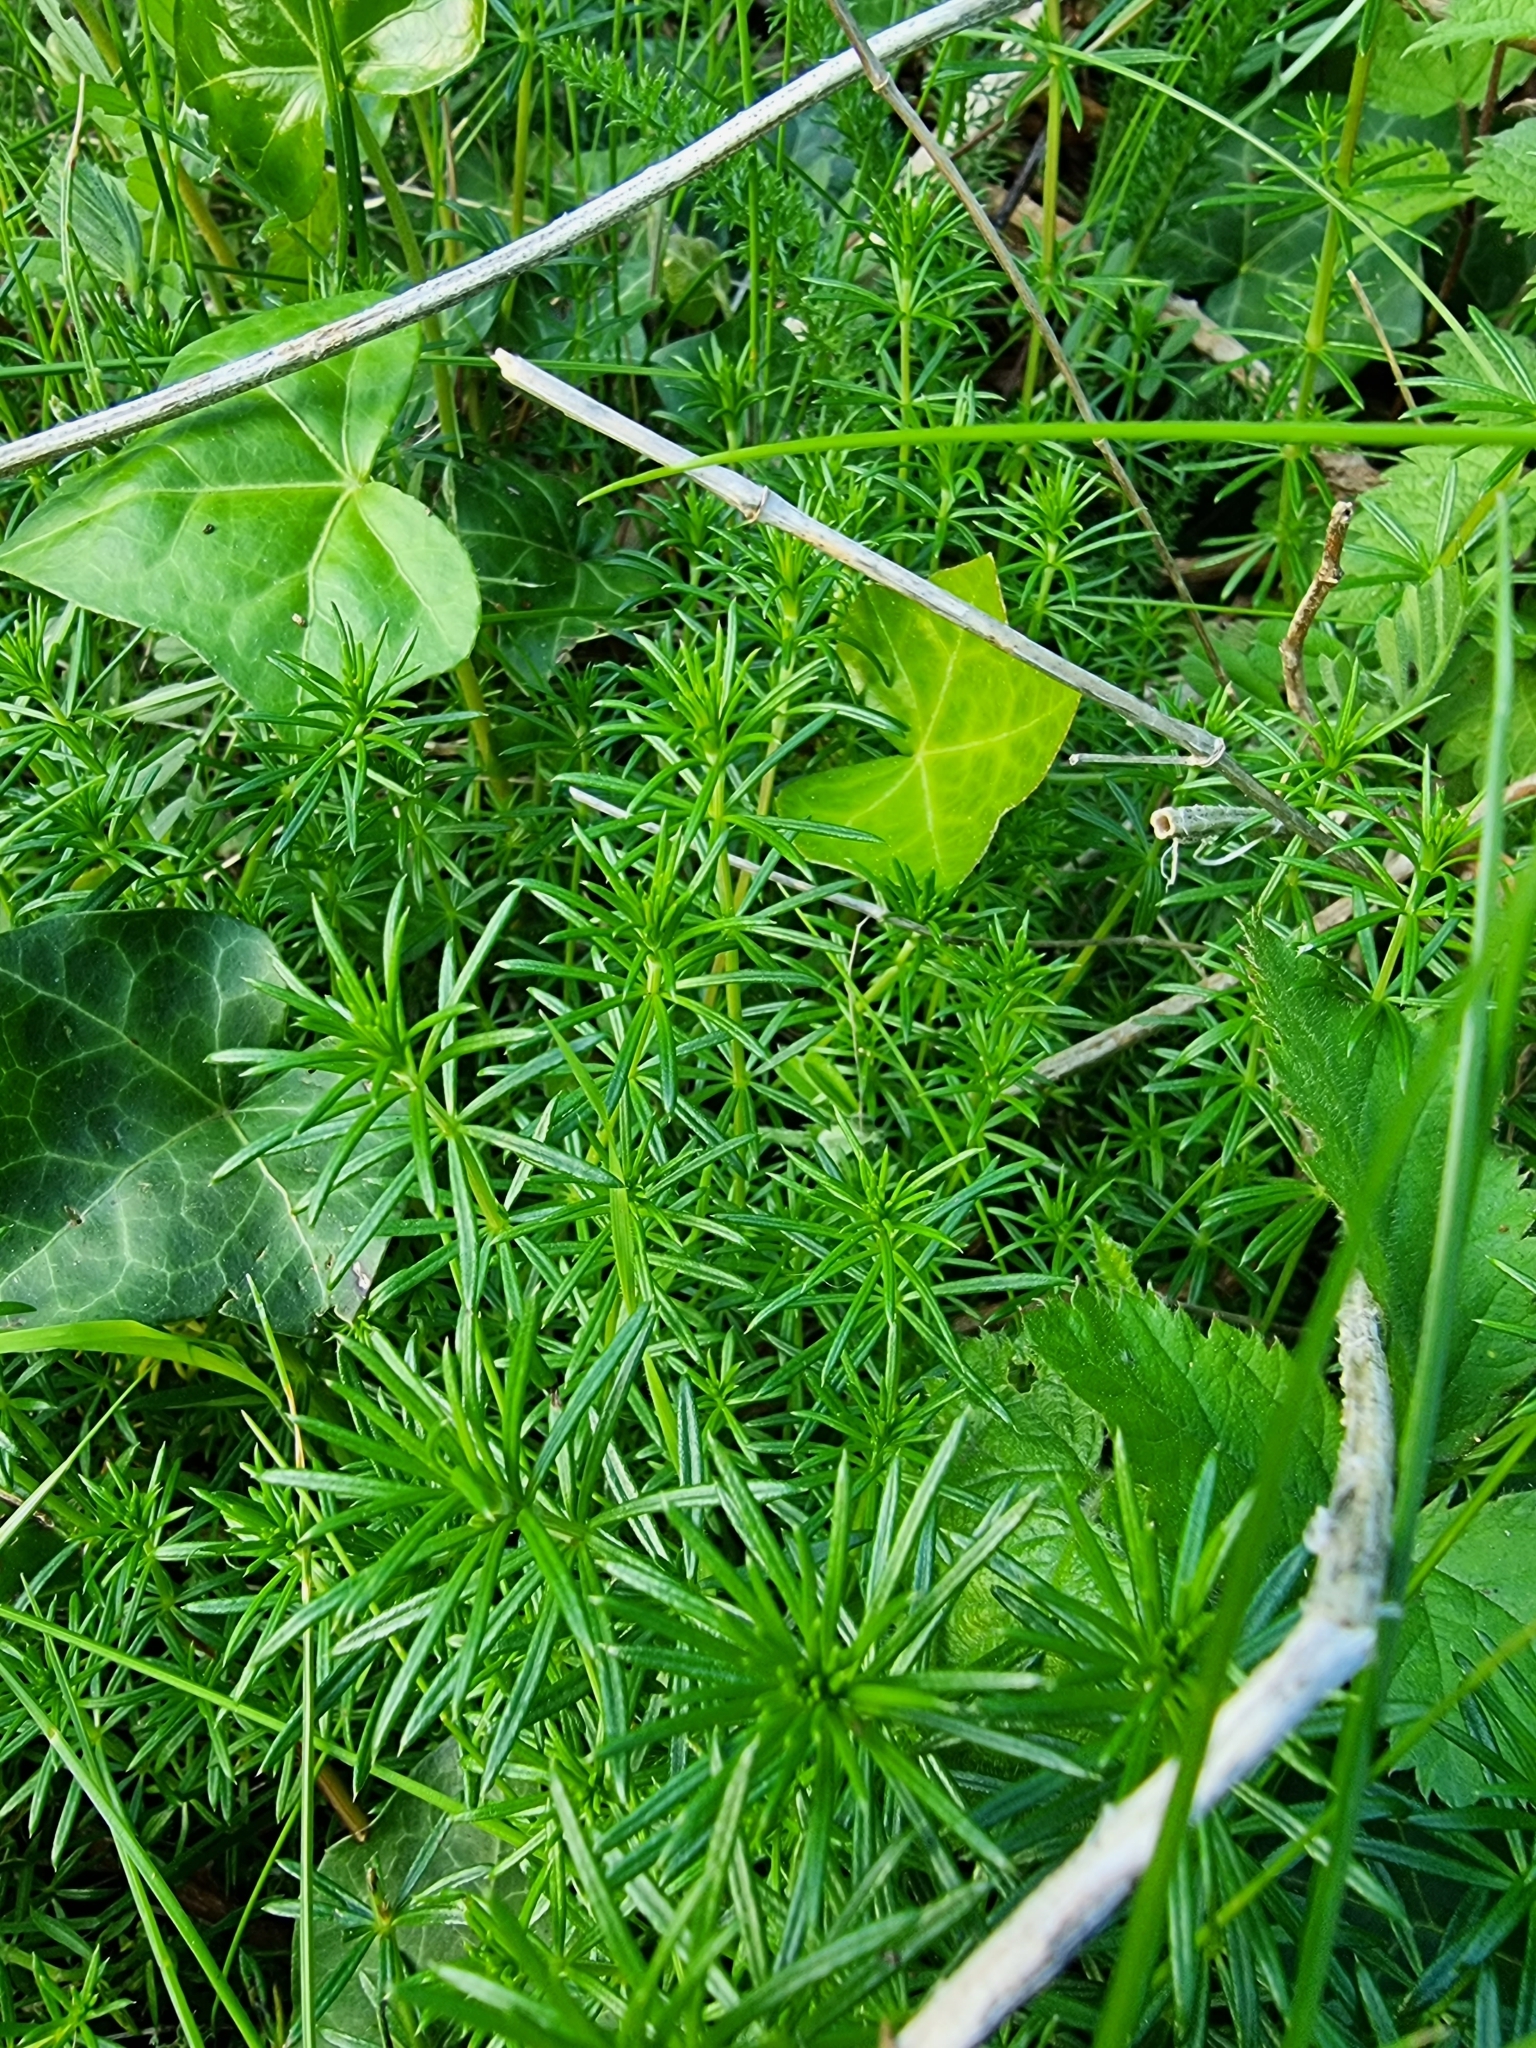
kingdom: Plantae
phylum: Tracheophyta
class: Magnoliopsida
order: Gentianales
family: Rubiaceae
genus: Galium
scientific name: Galium verum
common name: Lady's bedstraw
